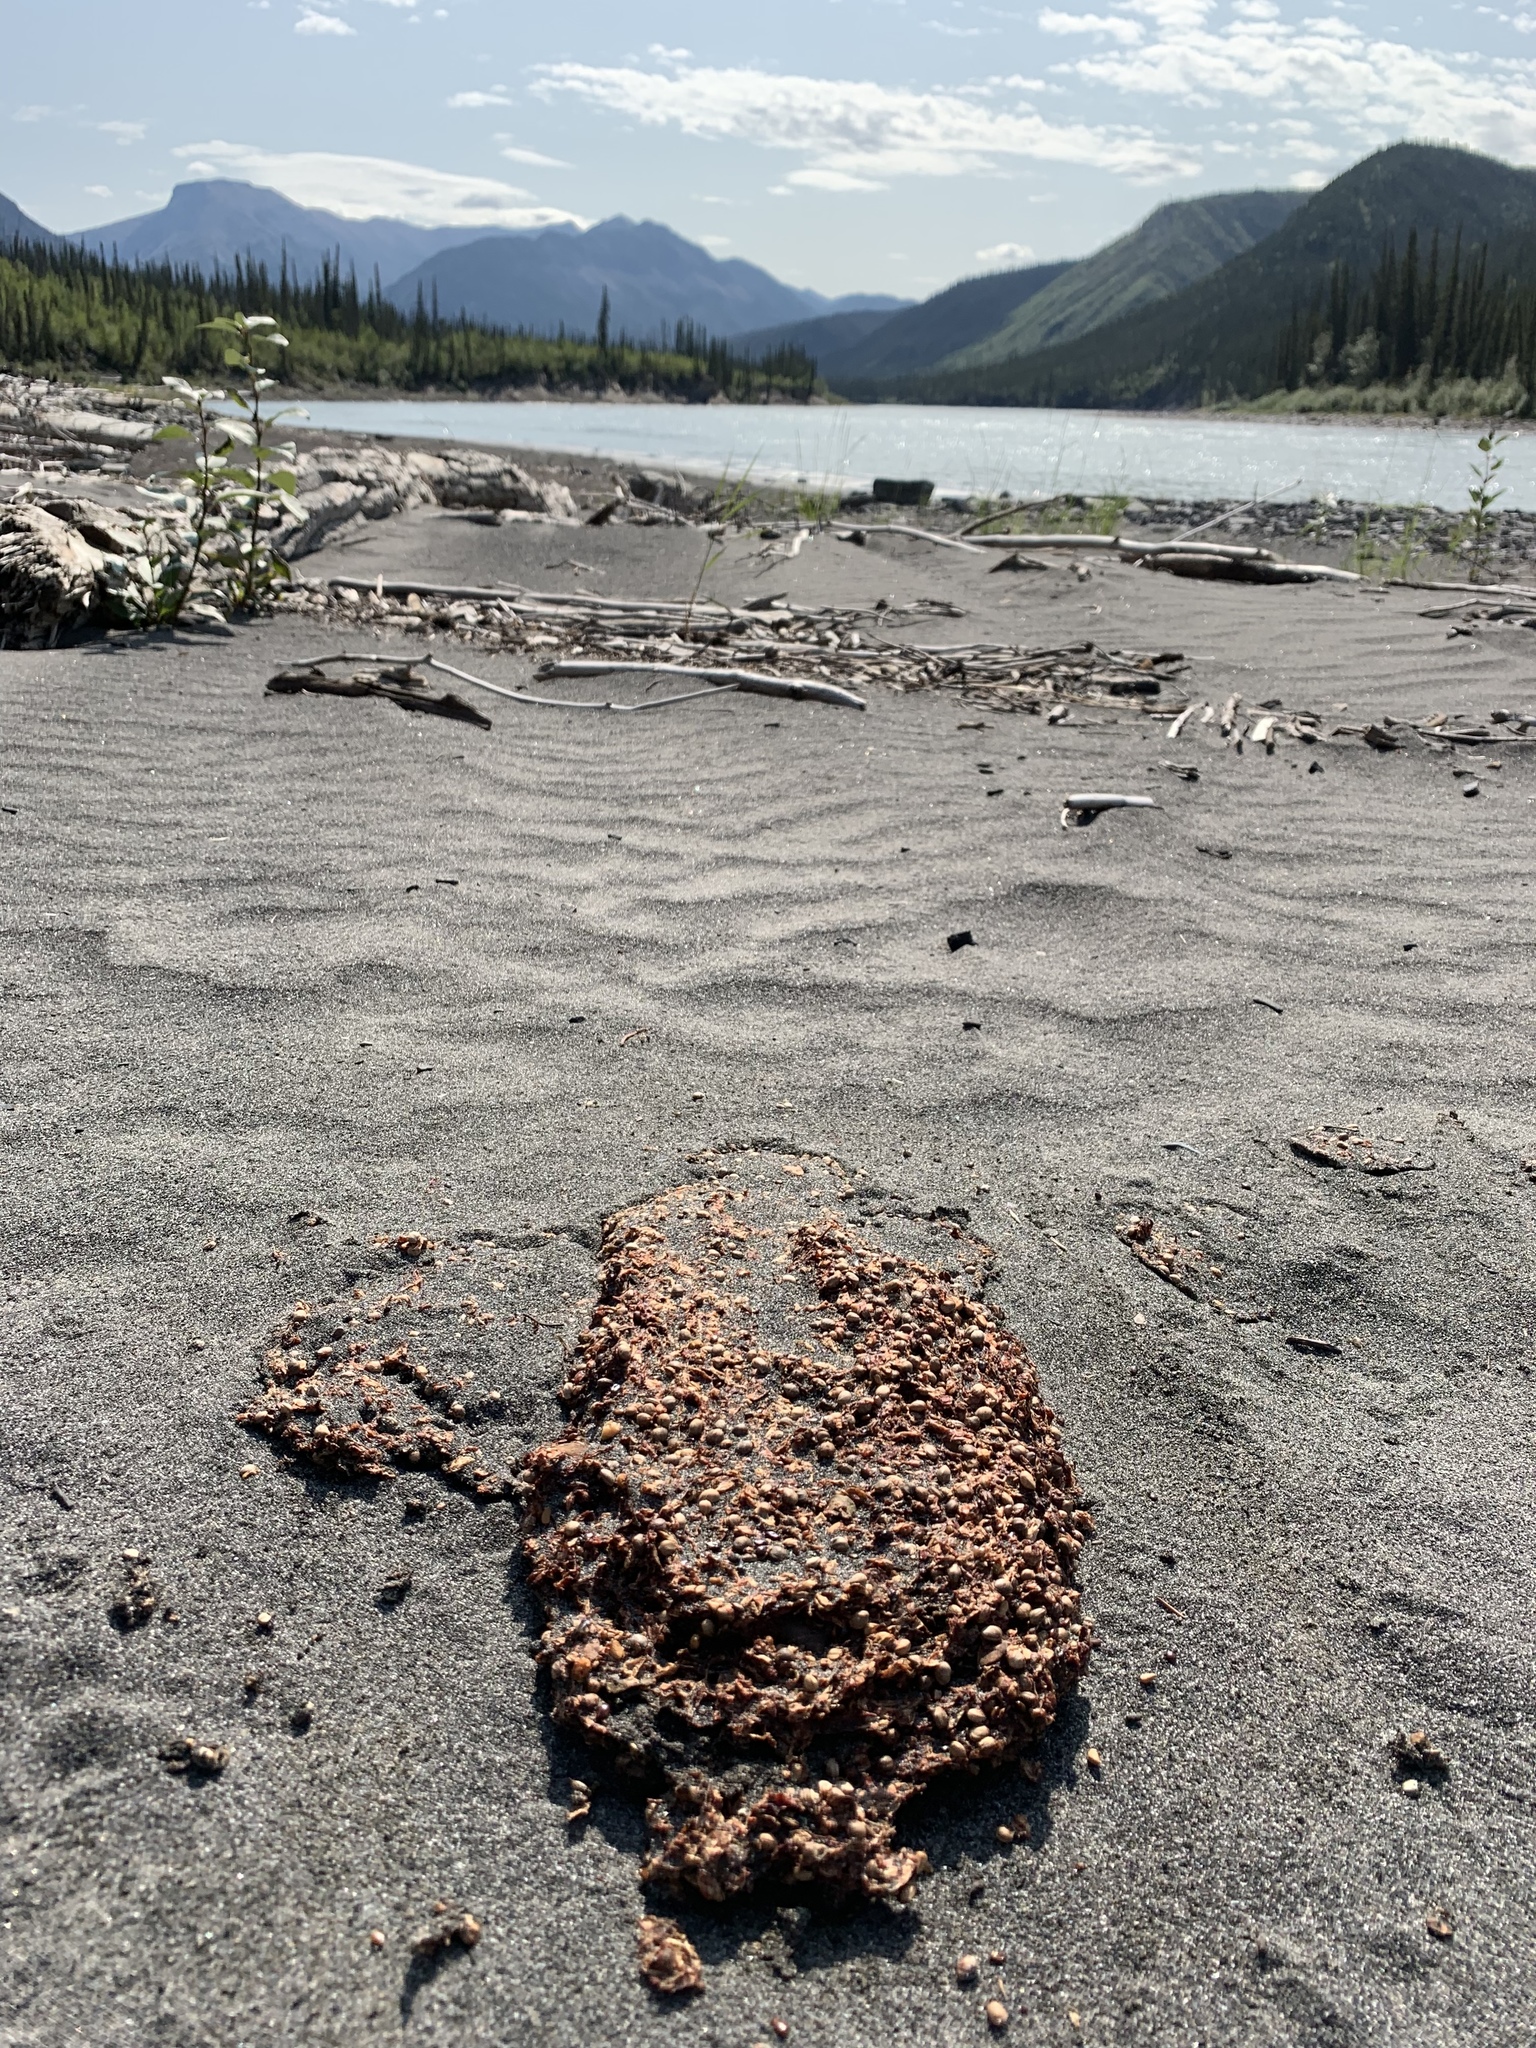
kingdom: Animalia
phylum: Chordata
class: Mammalia
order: Carnivora
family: Ursidae
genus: Ursus
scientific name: Ursus americanus
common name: American black bear
